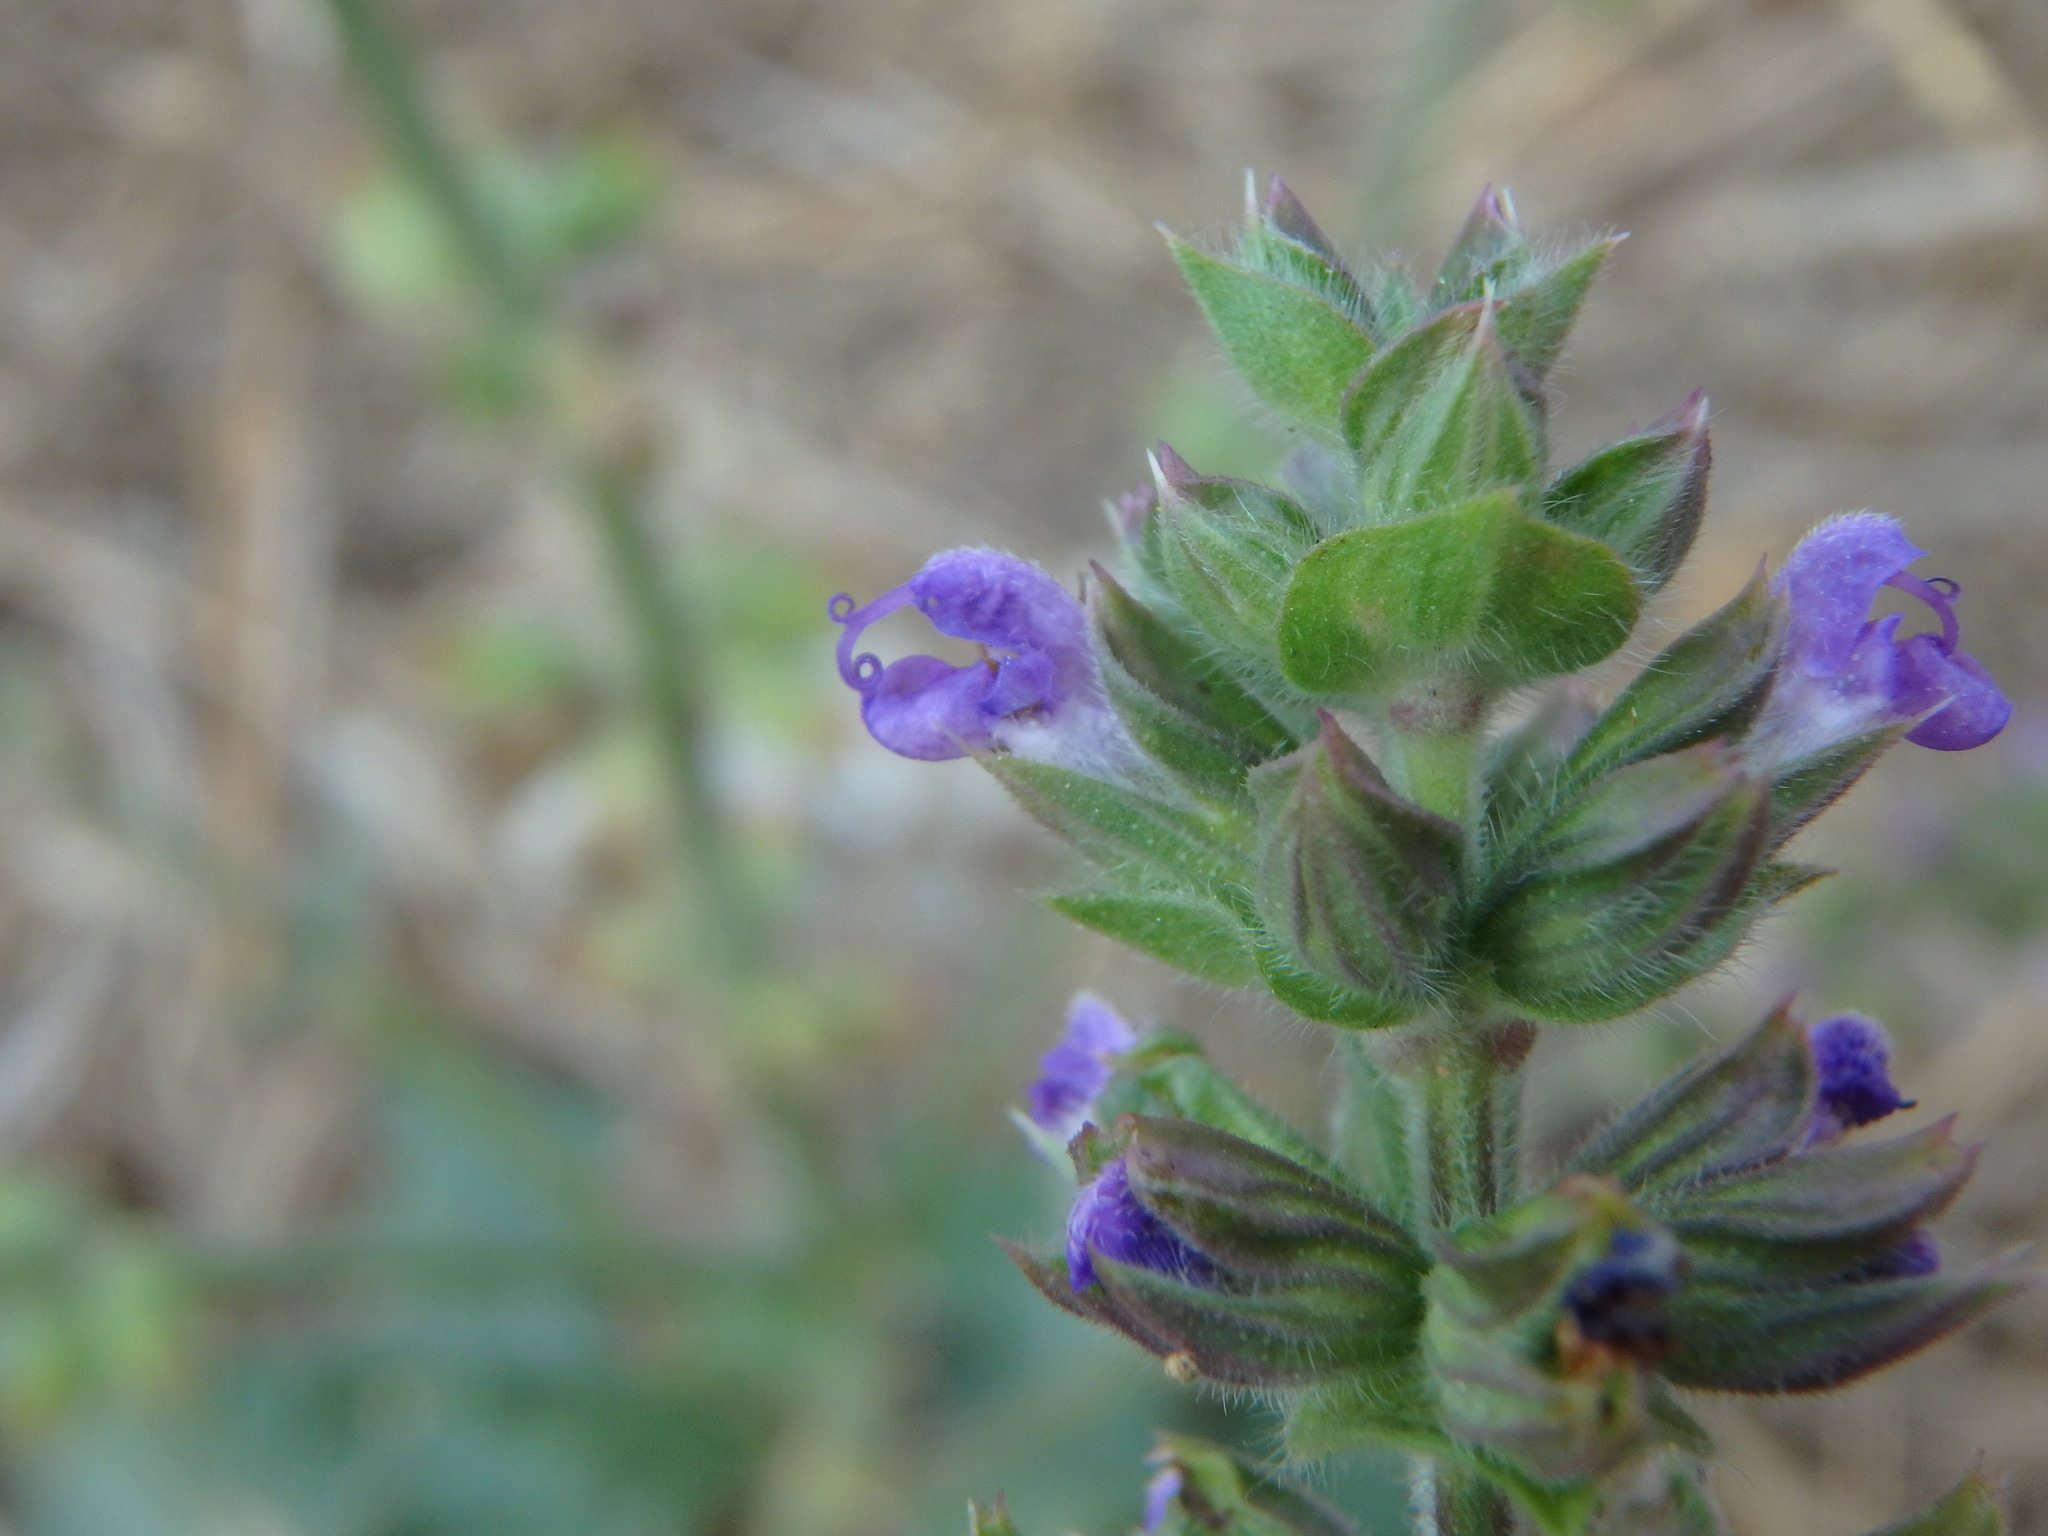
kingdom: Plantae
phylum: Tracheophyta
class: Magnoliopsida
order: Lamiales
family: Lamiaceae
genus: Salvia
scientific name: Salvia verbenaca
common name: Wild clary
